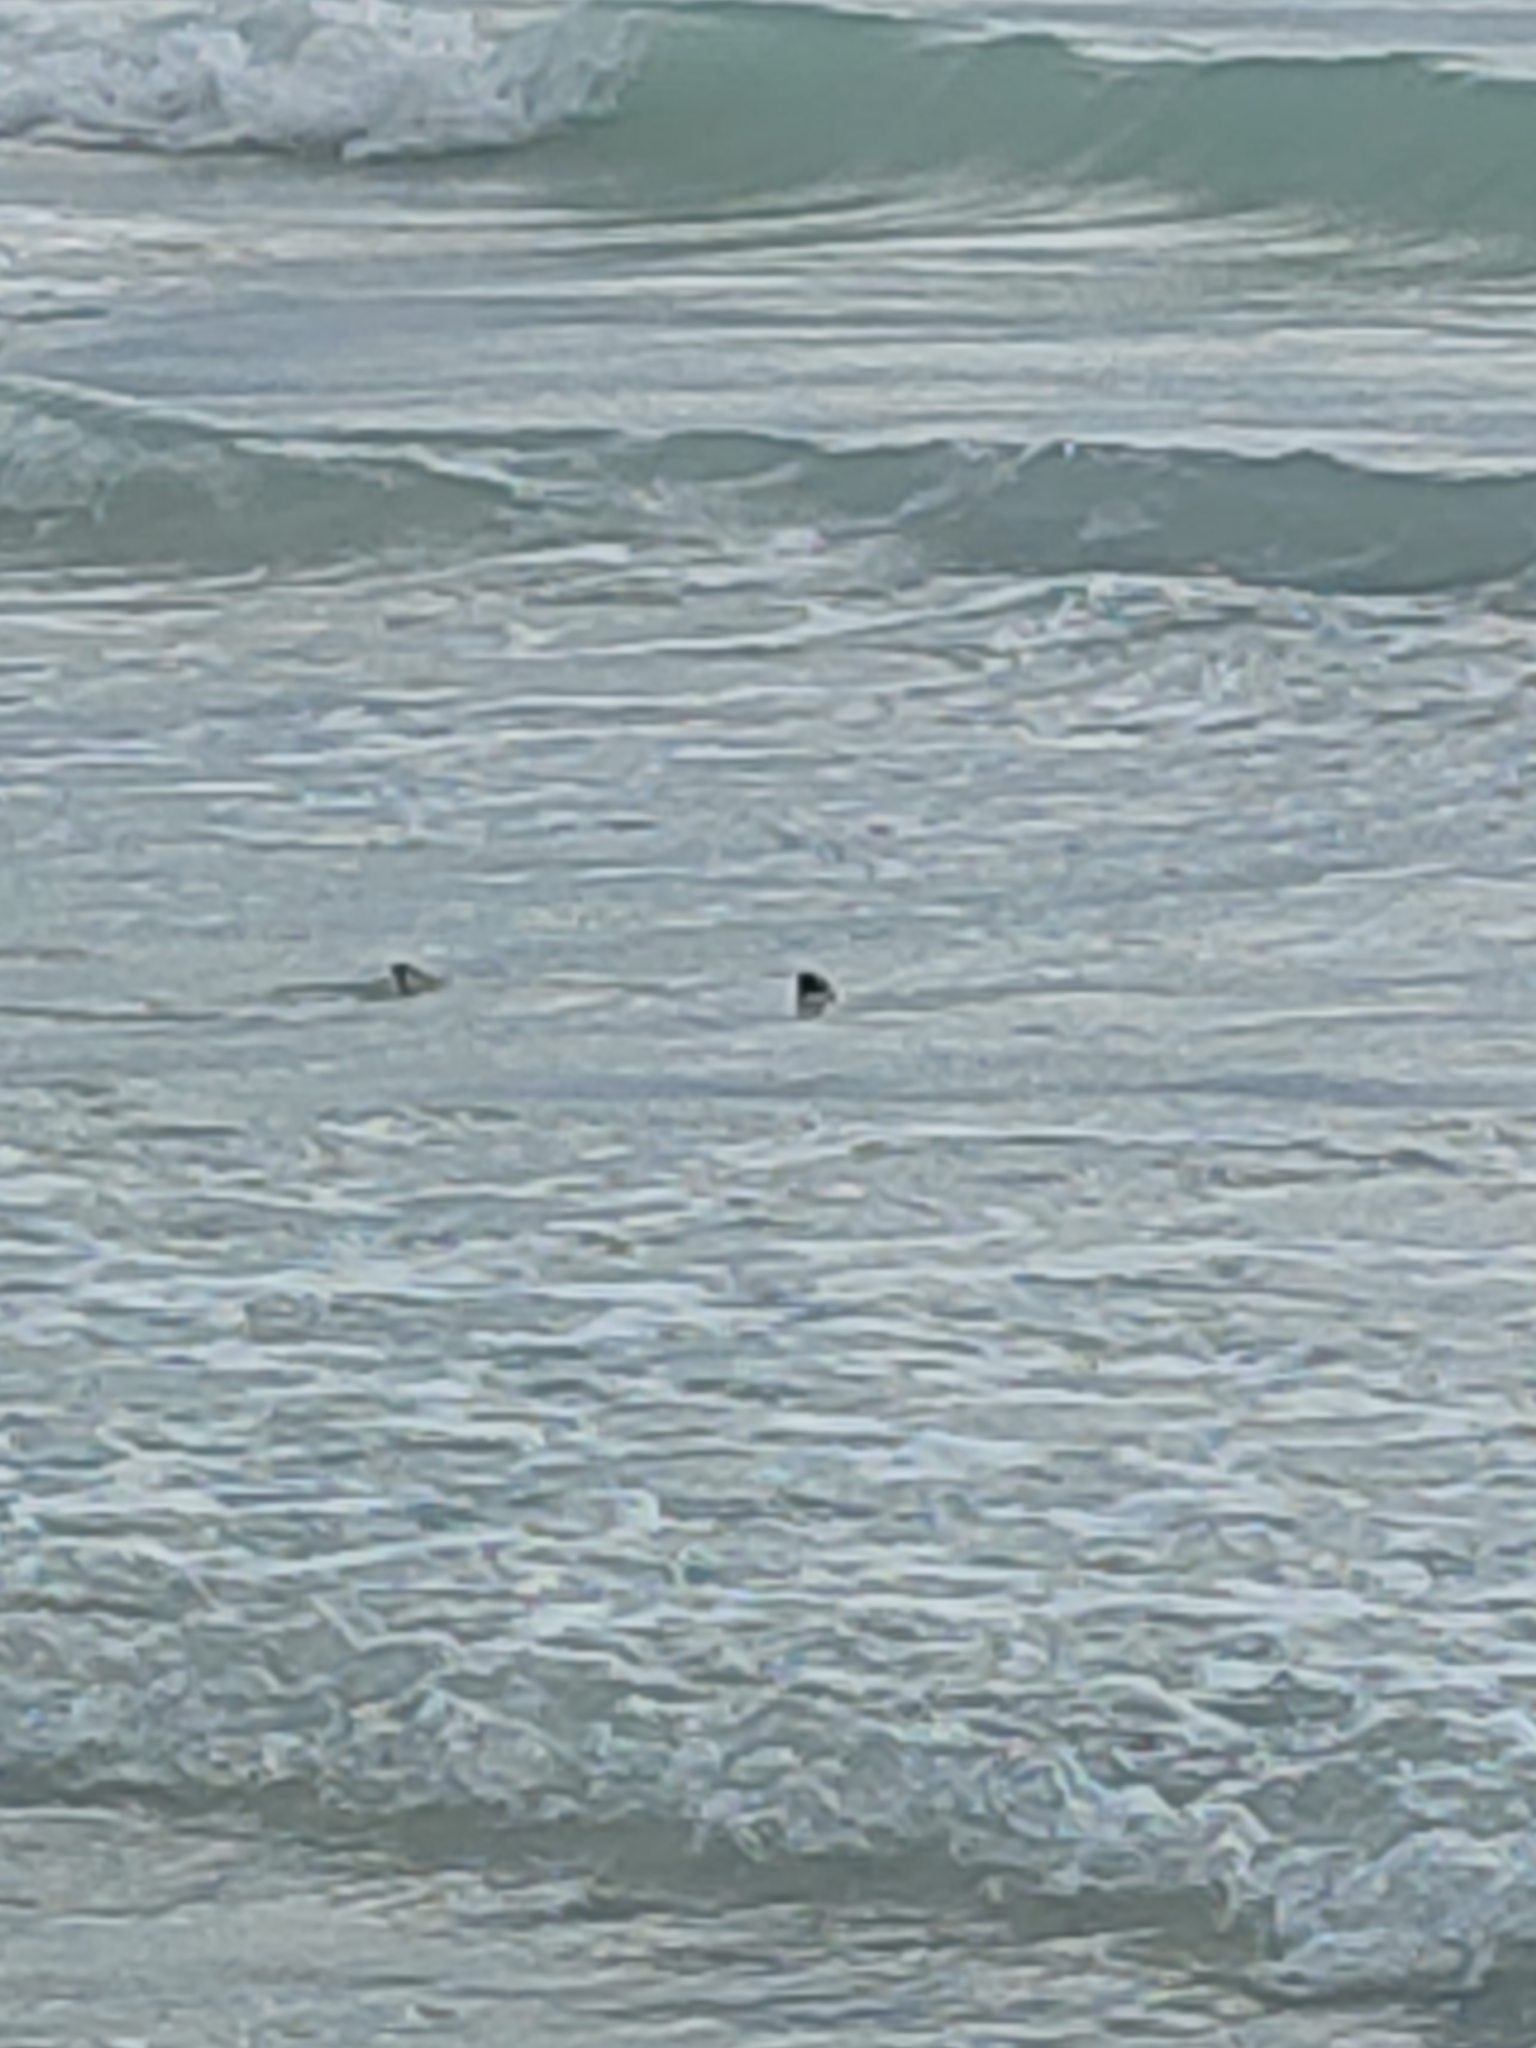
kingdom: Animalia
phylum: Chordata
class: Elasmobranchii
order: Carcharhiniformes
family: Carcharhinidae
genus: Carcharhinus
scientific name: Carcharhinus melanopterus
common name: Blacktip reef shark
